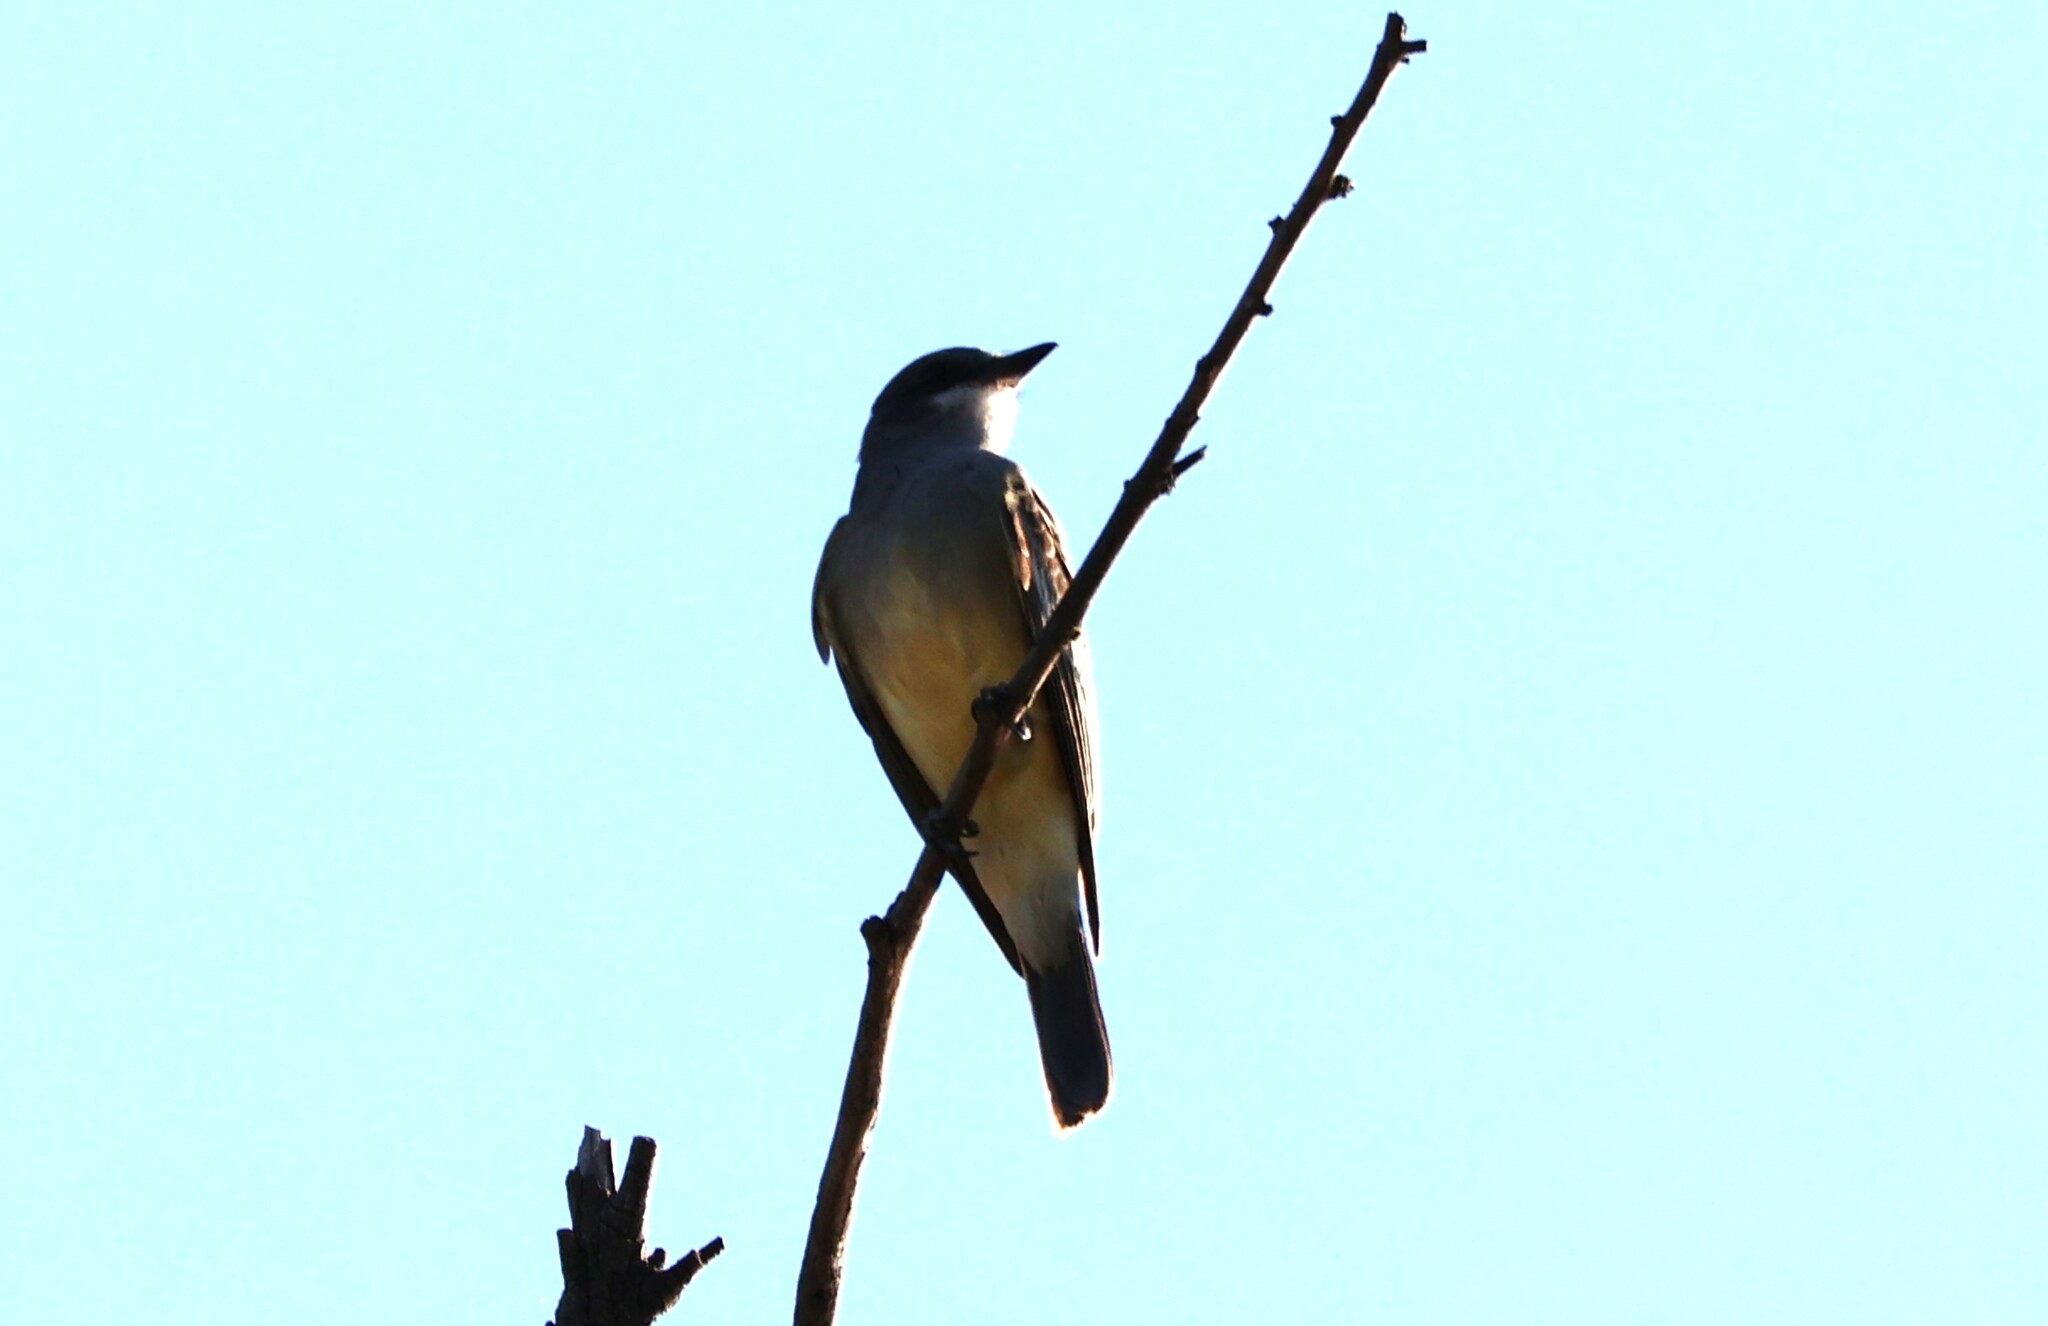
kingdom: Animalia
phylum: Chordata
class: Aves
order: Passeriformes
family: Tyrannidae
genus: Tyrannus
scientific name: Tyrannus vociferans
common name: Cassin's kingbird
